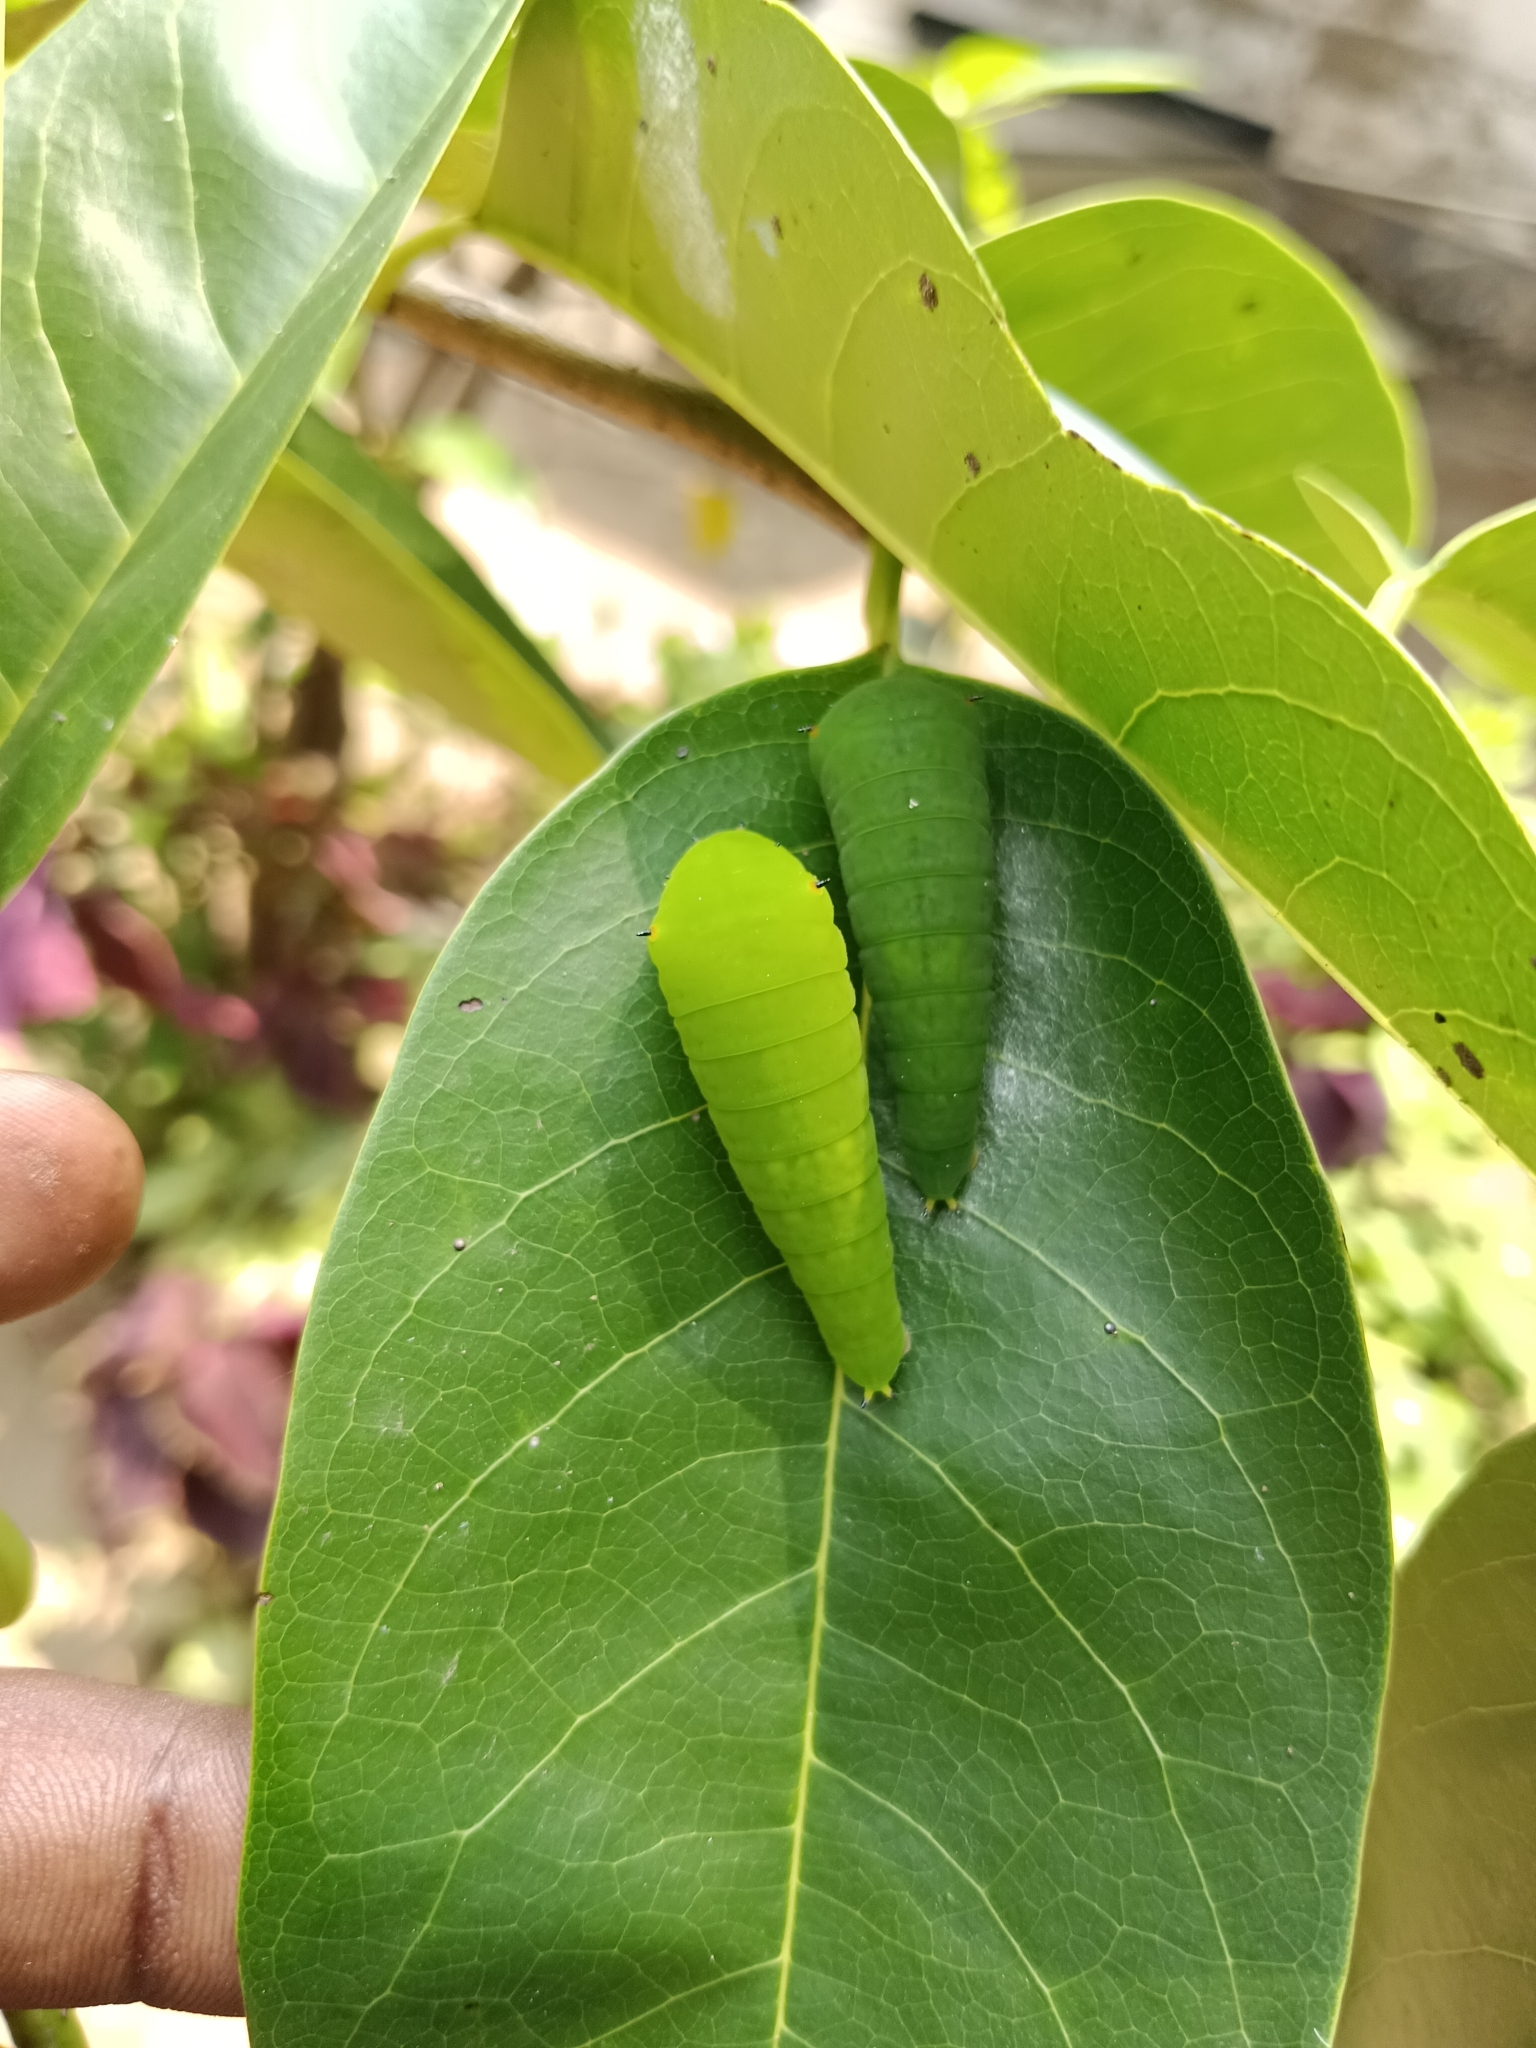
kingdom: Animalia
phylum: Arthropoda
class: Insecta
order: Lepidoptera
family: Papilionidae
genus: Graphium
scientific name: Graphium agamemnon
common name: Tailed jay
